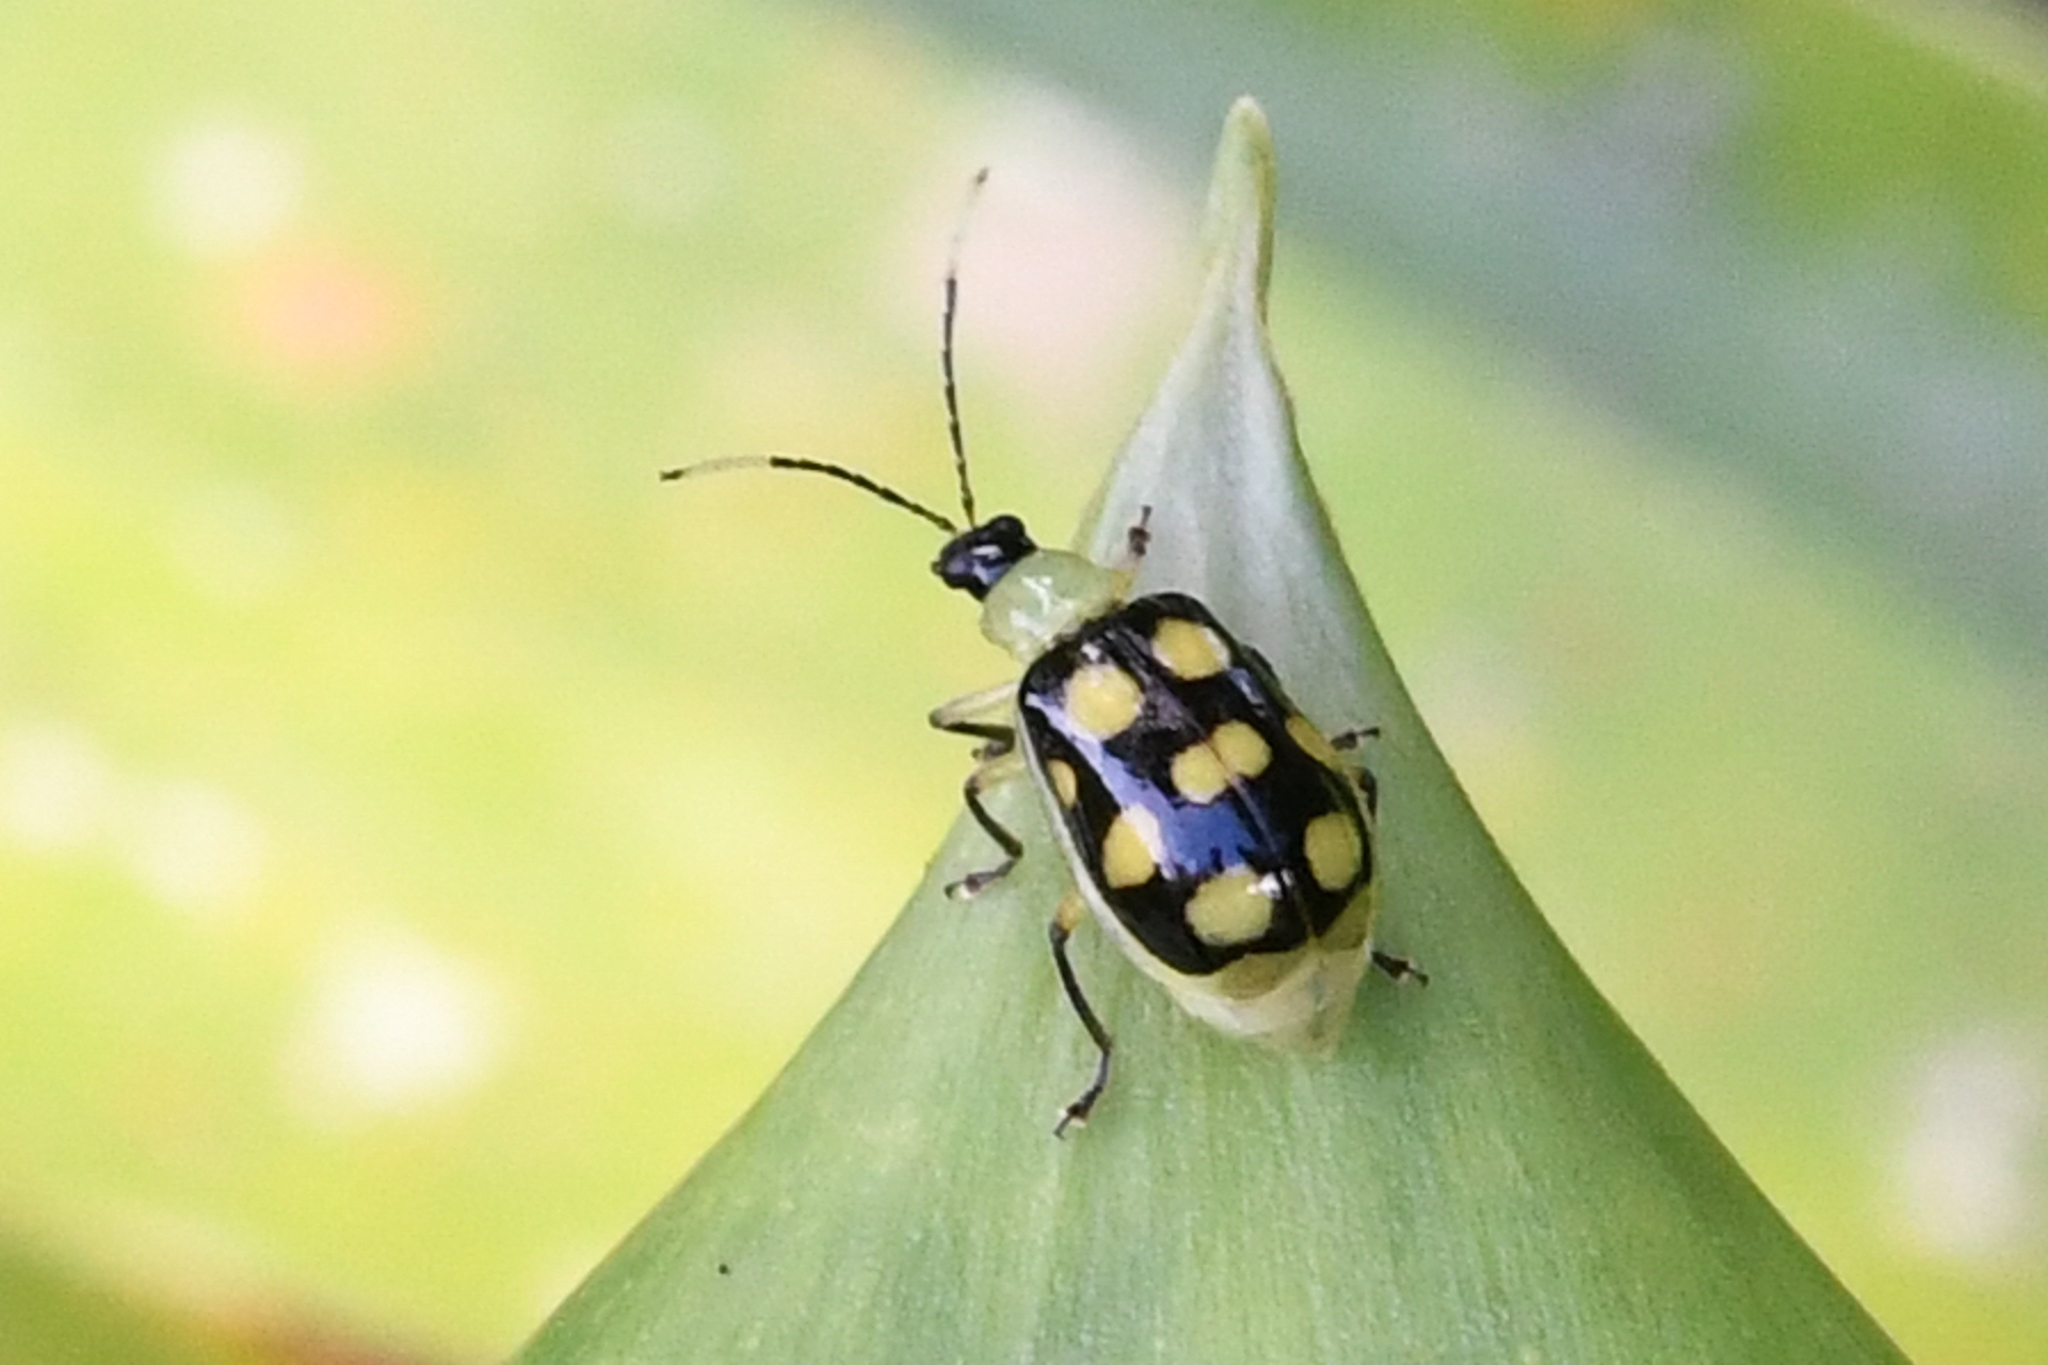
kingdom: Animalia
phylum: Arthropoda
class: Insecta
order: Coleoptera
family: Chrysomelidae
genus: Diabrotica
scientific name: Diabrotica regalis
